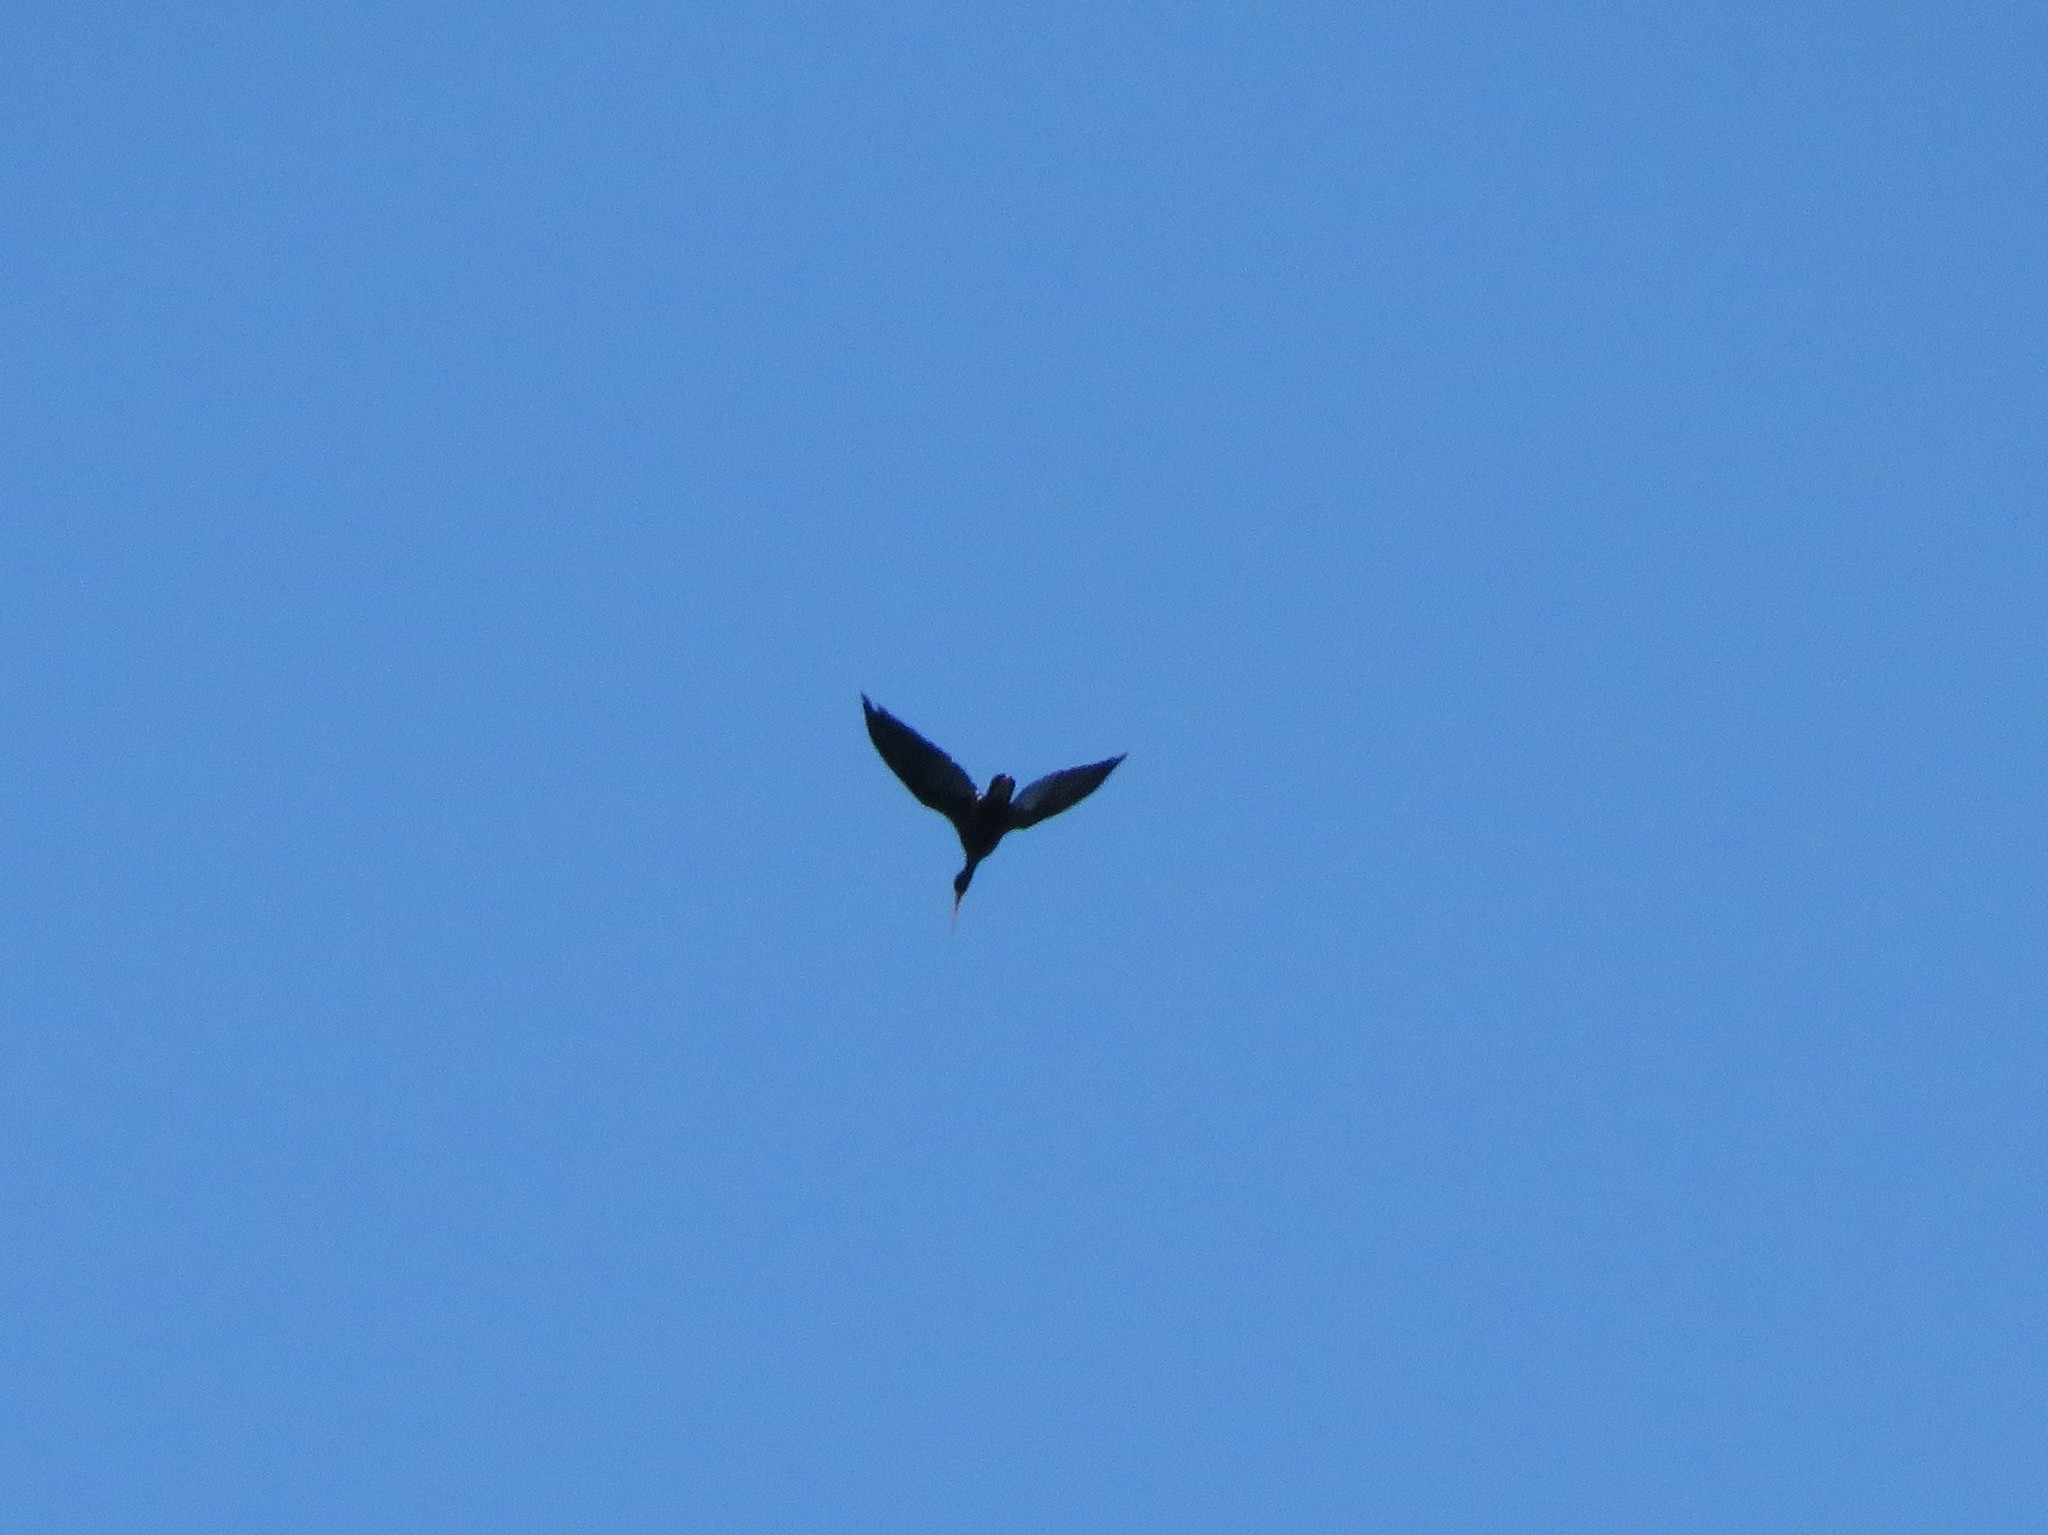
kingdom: Animalia
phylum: Chordata
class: Aves
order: Pelecaniformes
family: Threskiornithidae
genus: Phimosus
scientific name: Phimosus infuscatus
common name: Bare-faced ibis
